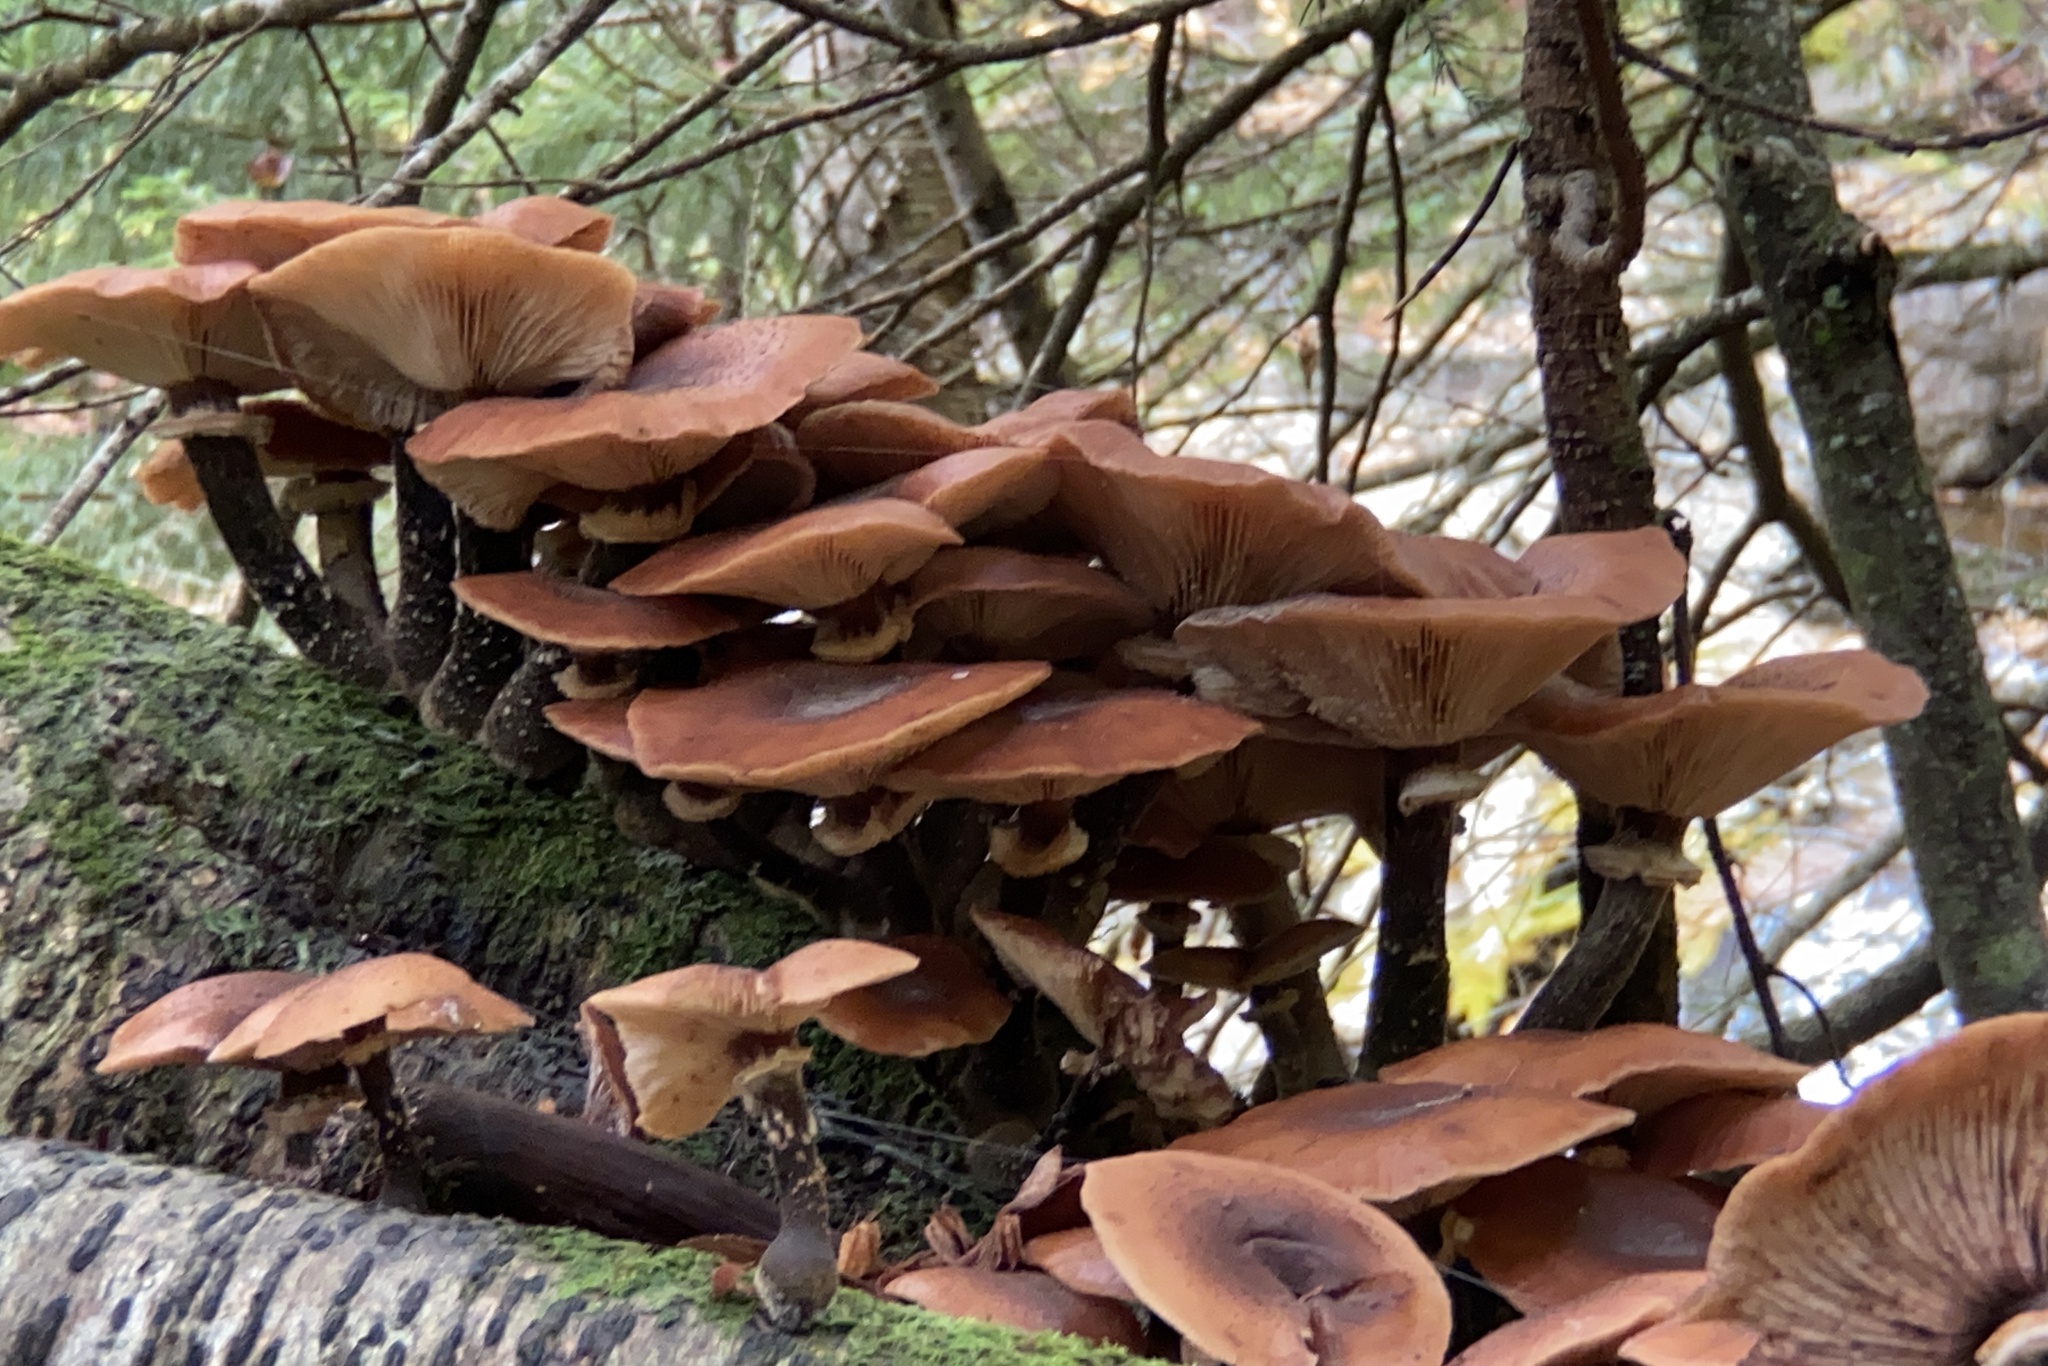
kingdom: Fungi
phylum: Basidiomycota
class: Agaricomycetes
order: Agaricales
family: Physalacriaceae
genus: Armillaria
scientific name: Armillaria mellea
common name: Honey fungus
